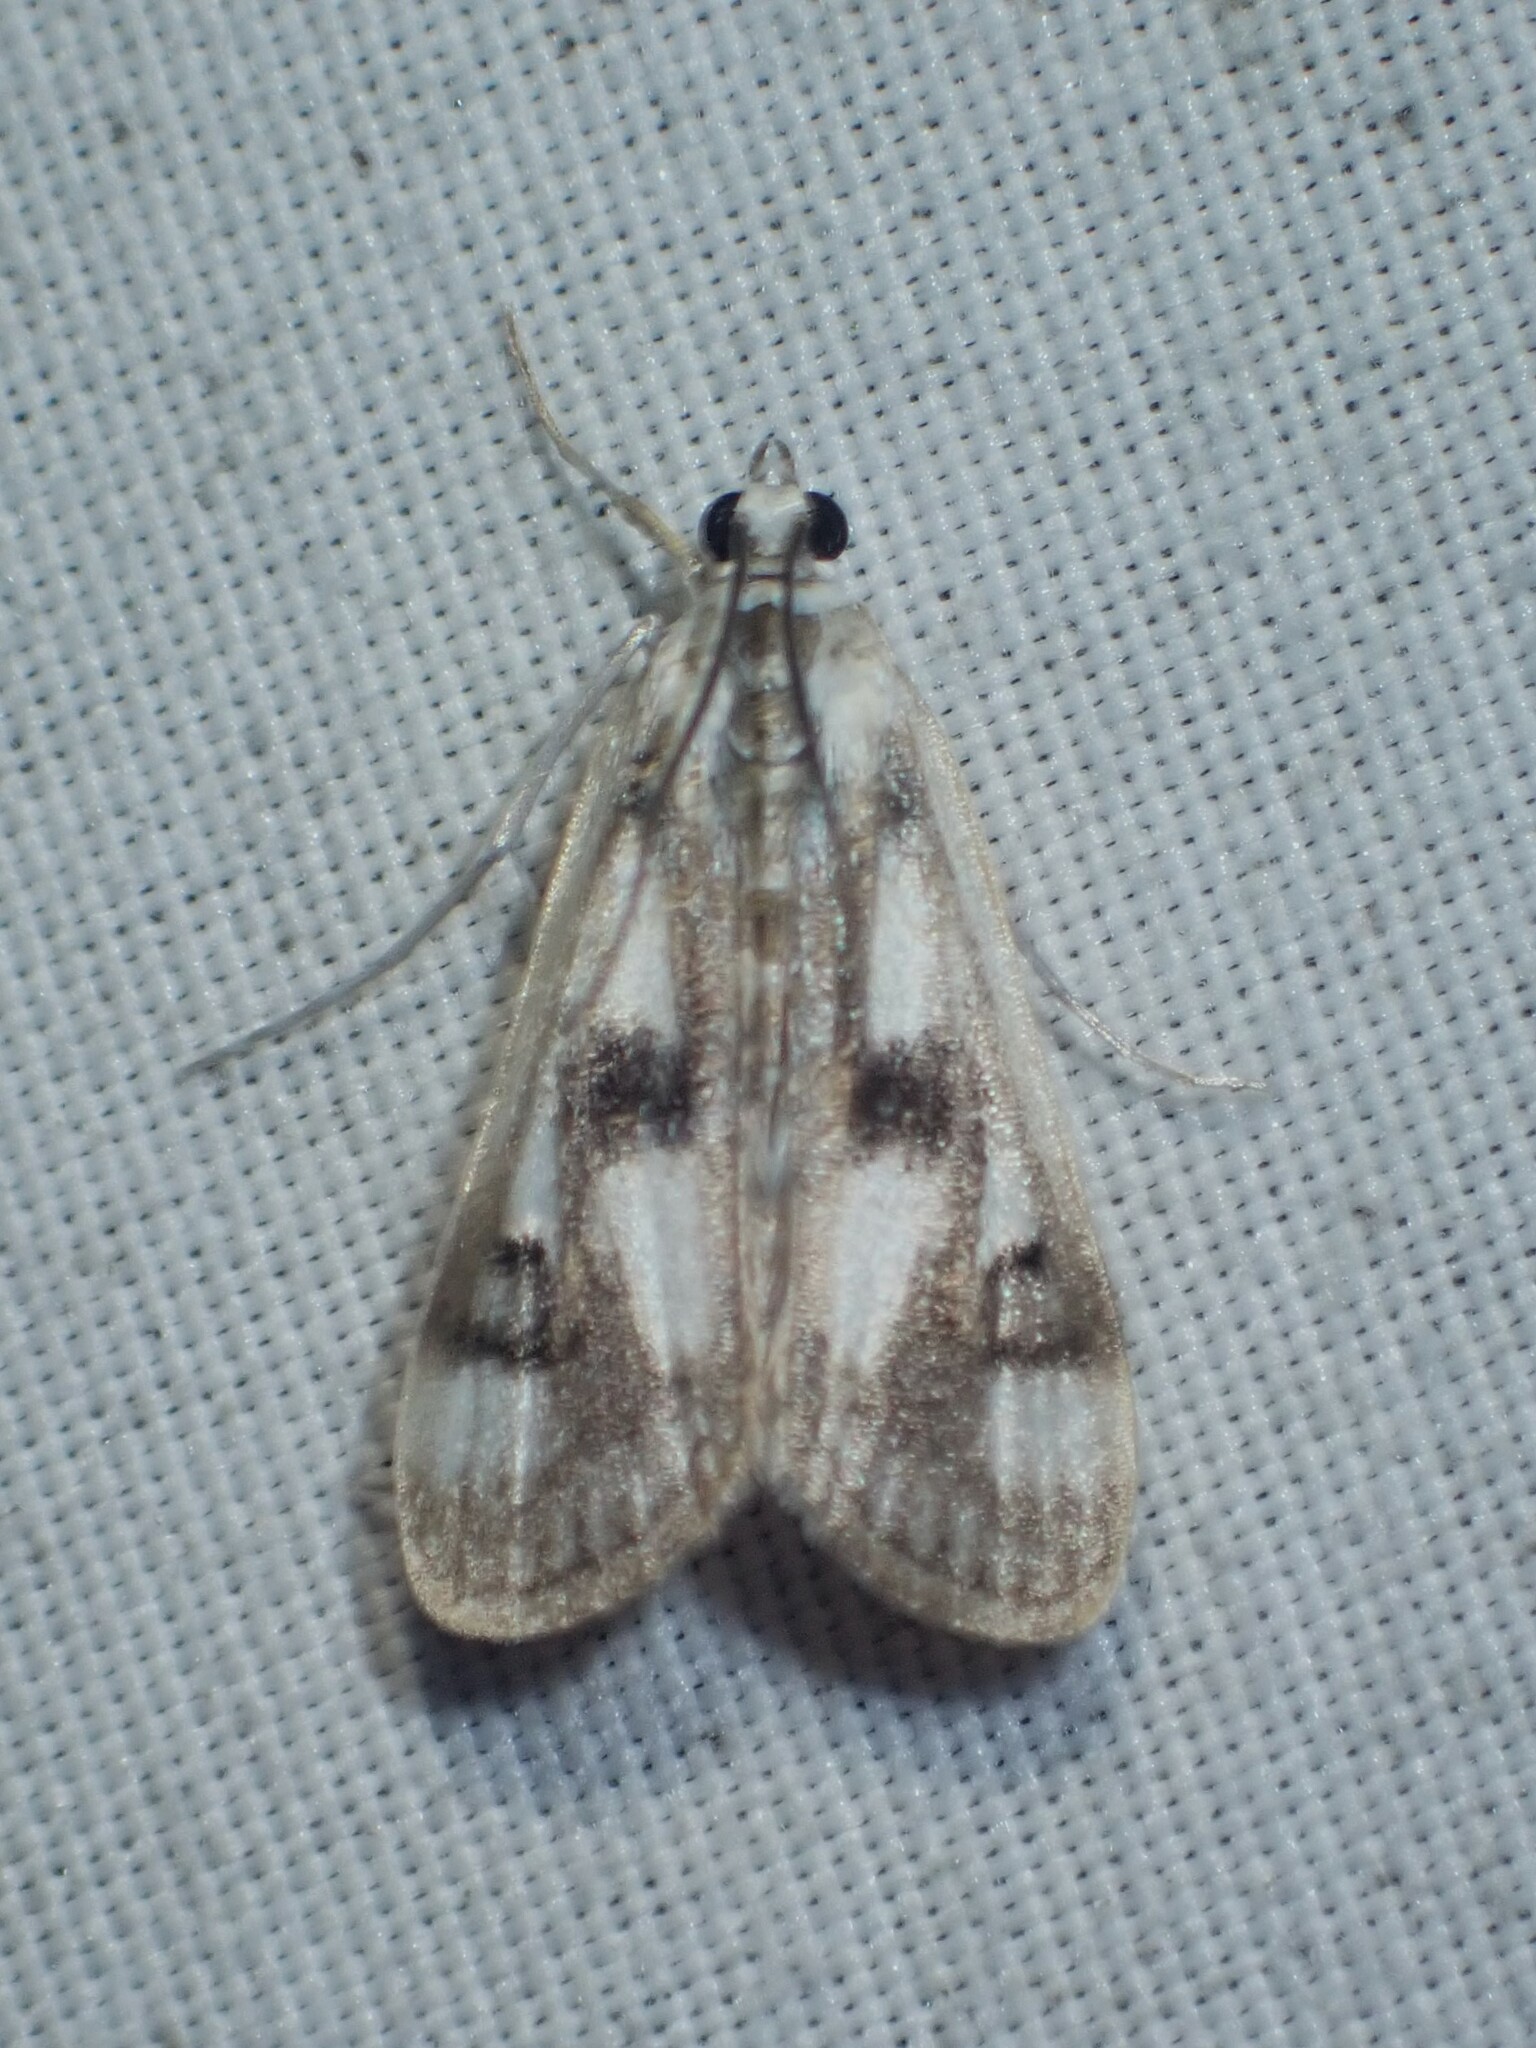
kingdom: Animalia
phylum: Arthropoda
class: Insecta
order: Lepidoptera
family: Crambidae
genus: Parapoynx
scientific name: Parapoynx maculalis
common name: Polymorphic pondweed moth
